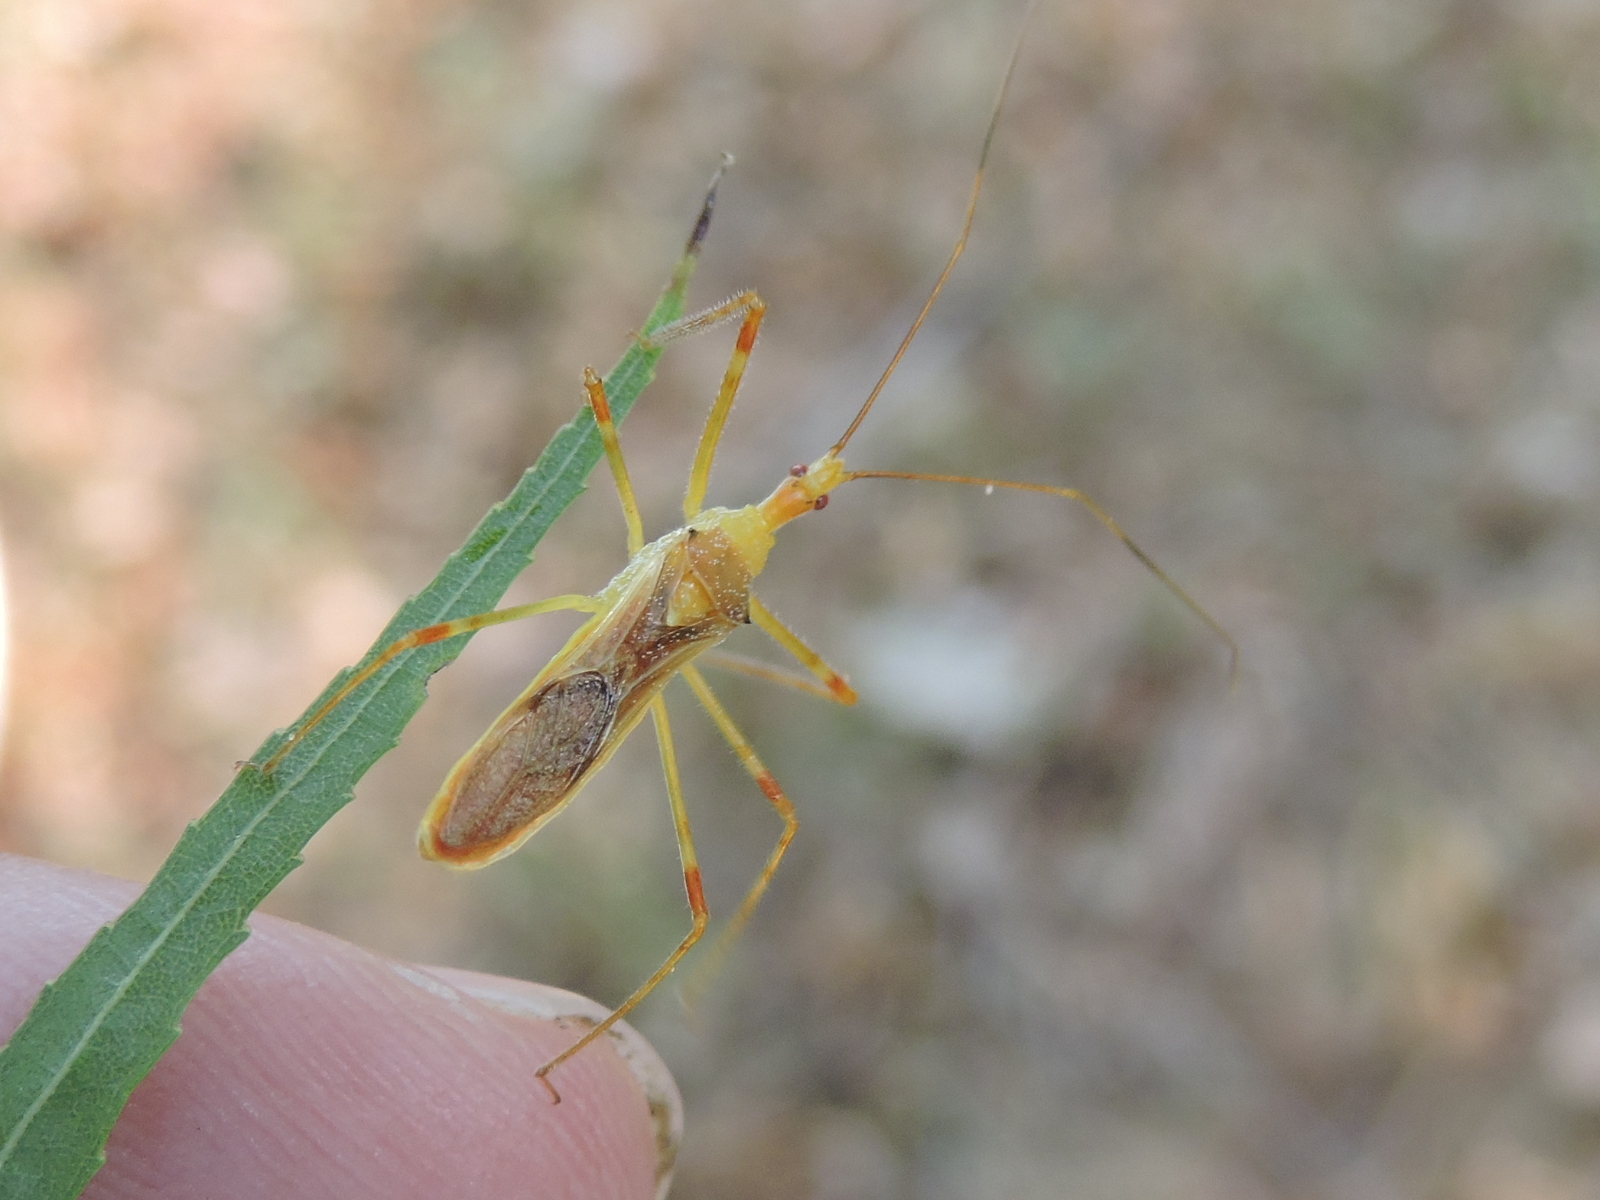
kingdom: Animalia
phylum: Arthropoda
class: Insecta
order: Hemiptera
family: Reduviidae
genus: Zelus
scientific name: Zelus luridus
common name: Pale green assassin bug
